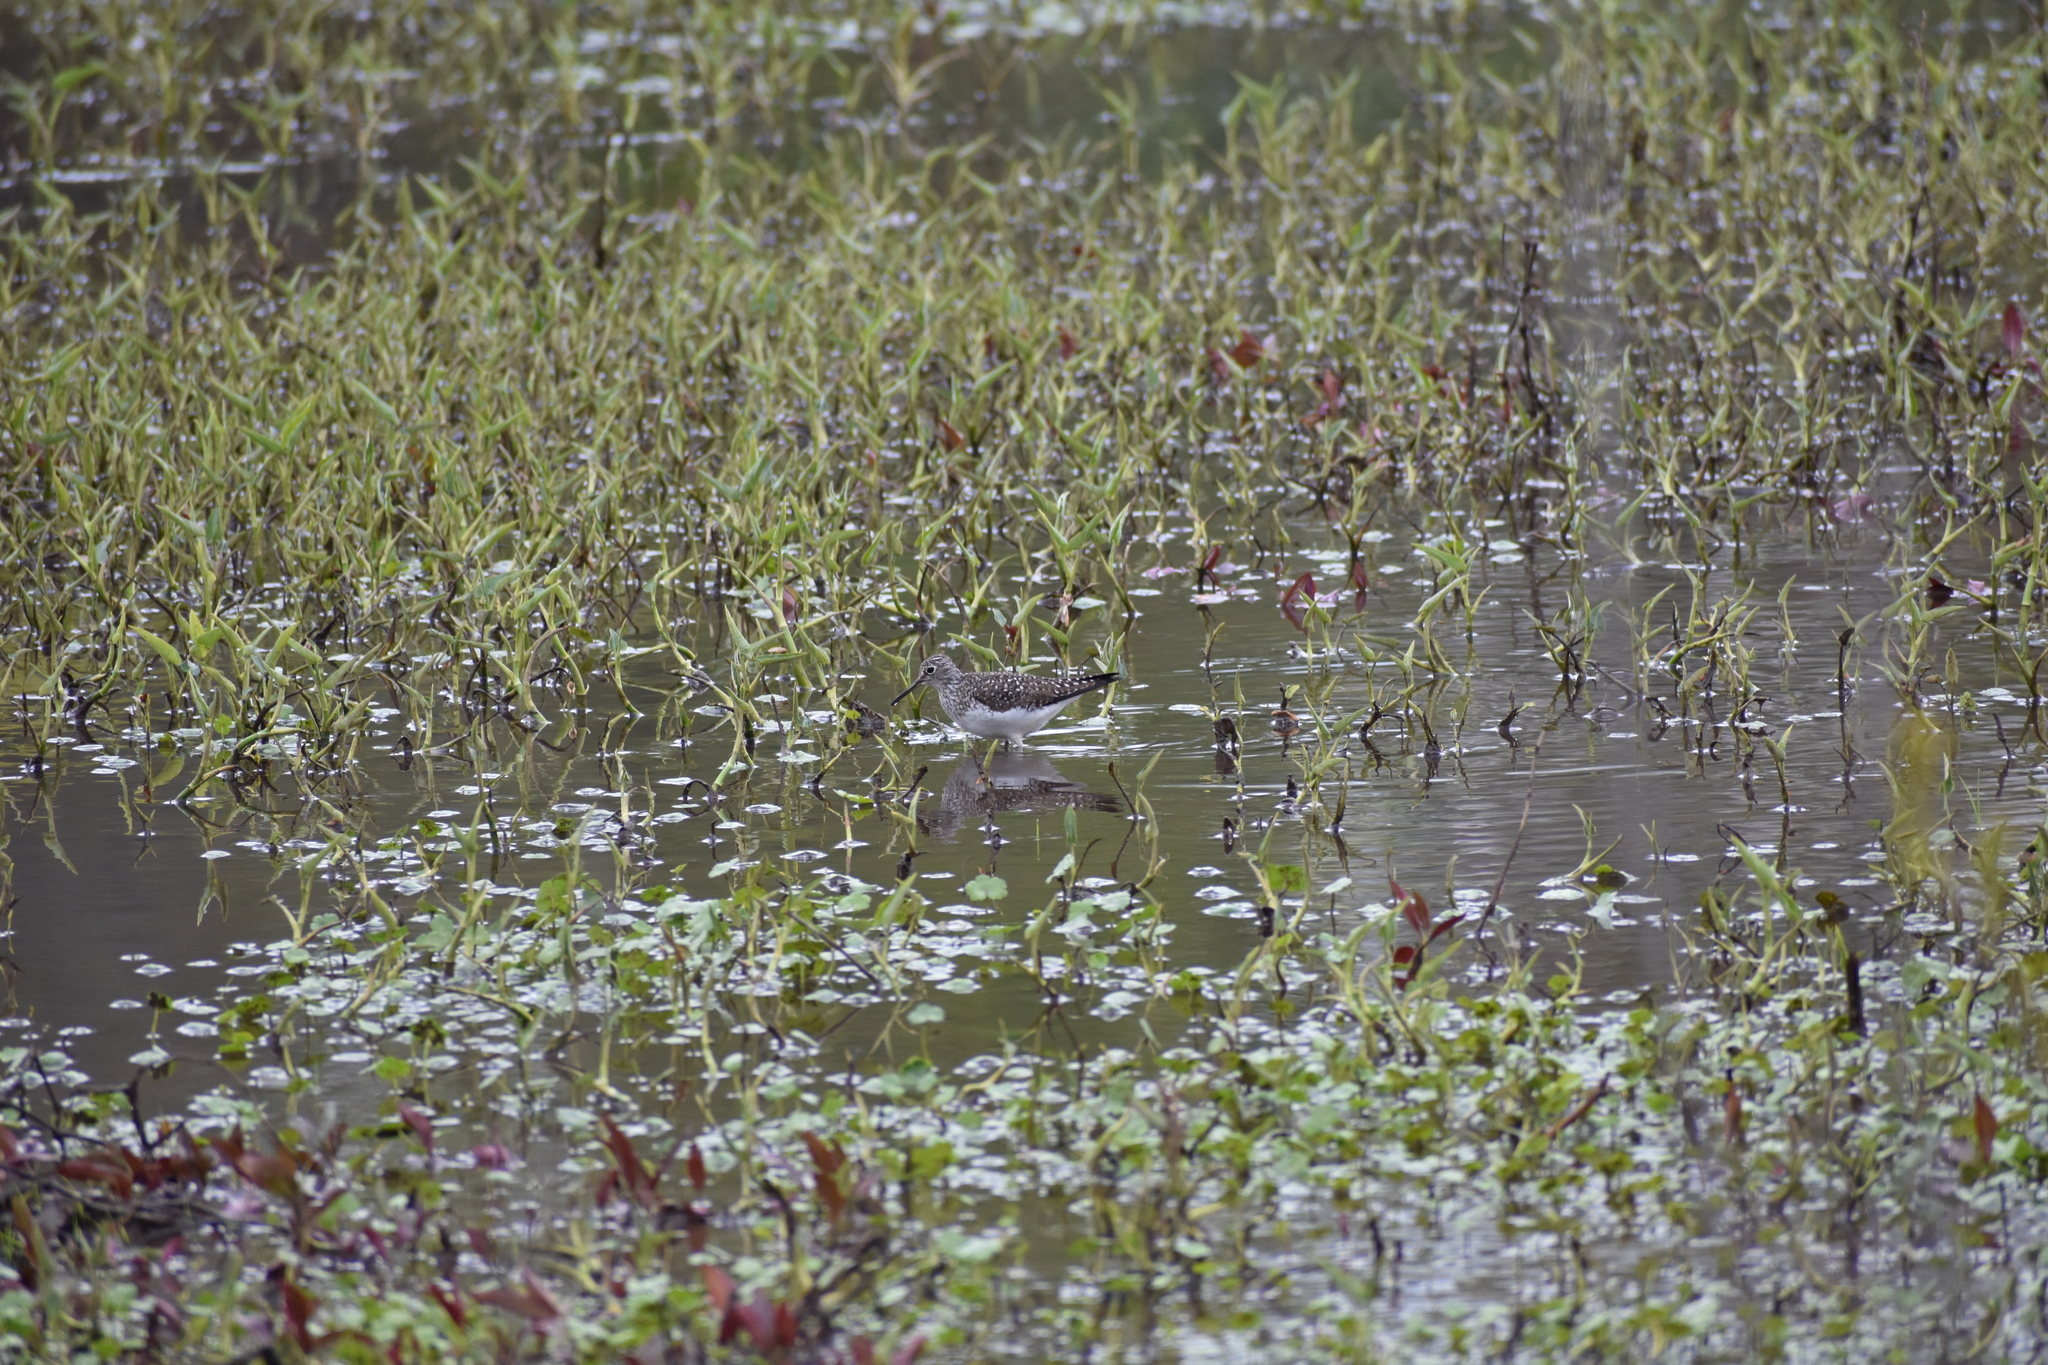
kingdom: Animalia
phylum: Chordata
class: Aves
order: Charadriiformes
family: Scolopacidae
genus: Tringa
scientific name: Tringa solitaria
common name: Solitary sandpiper
